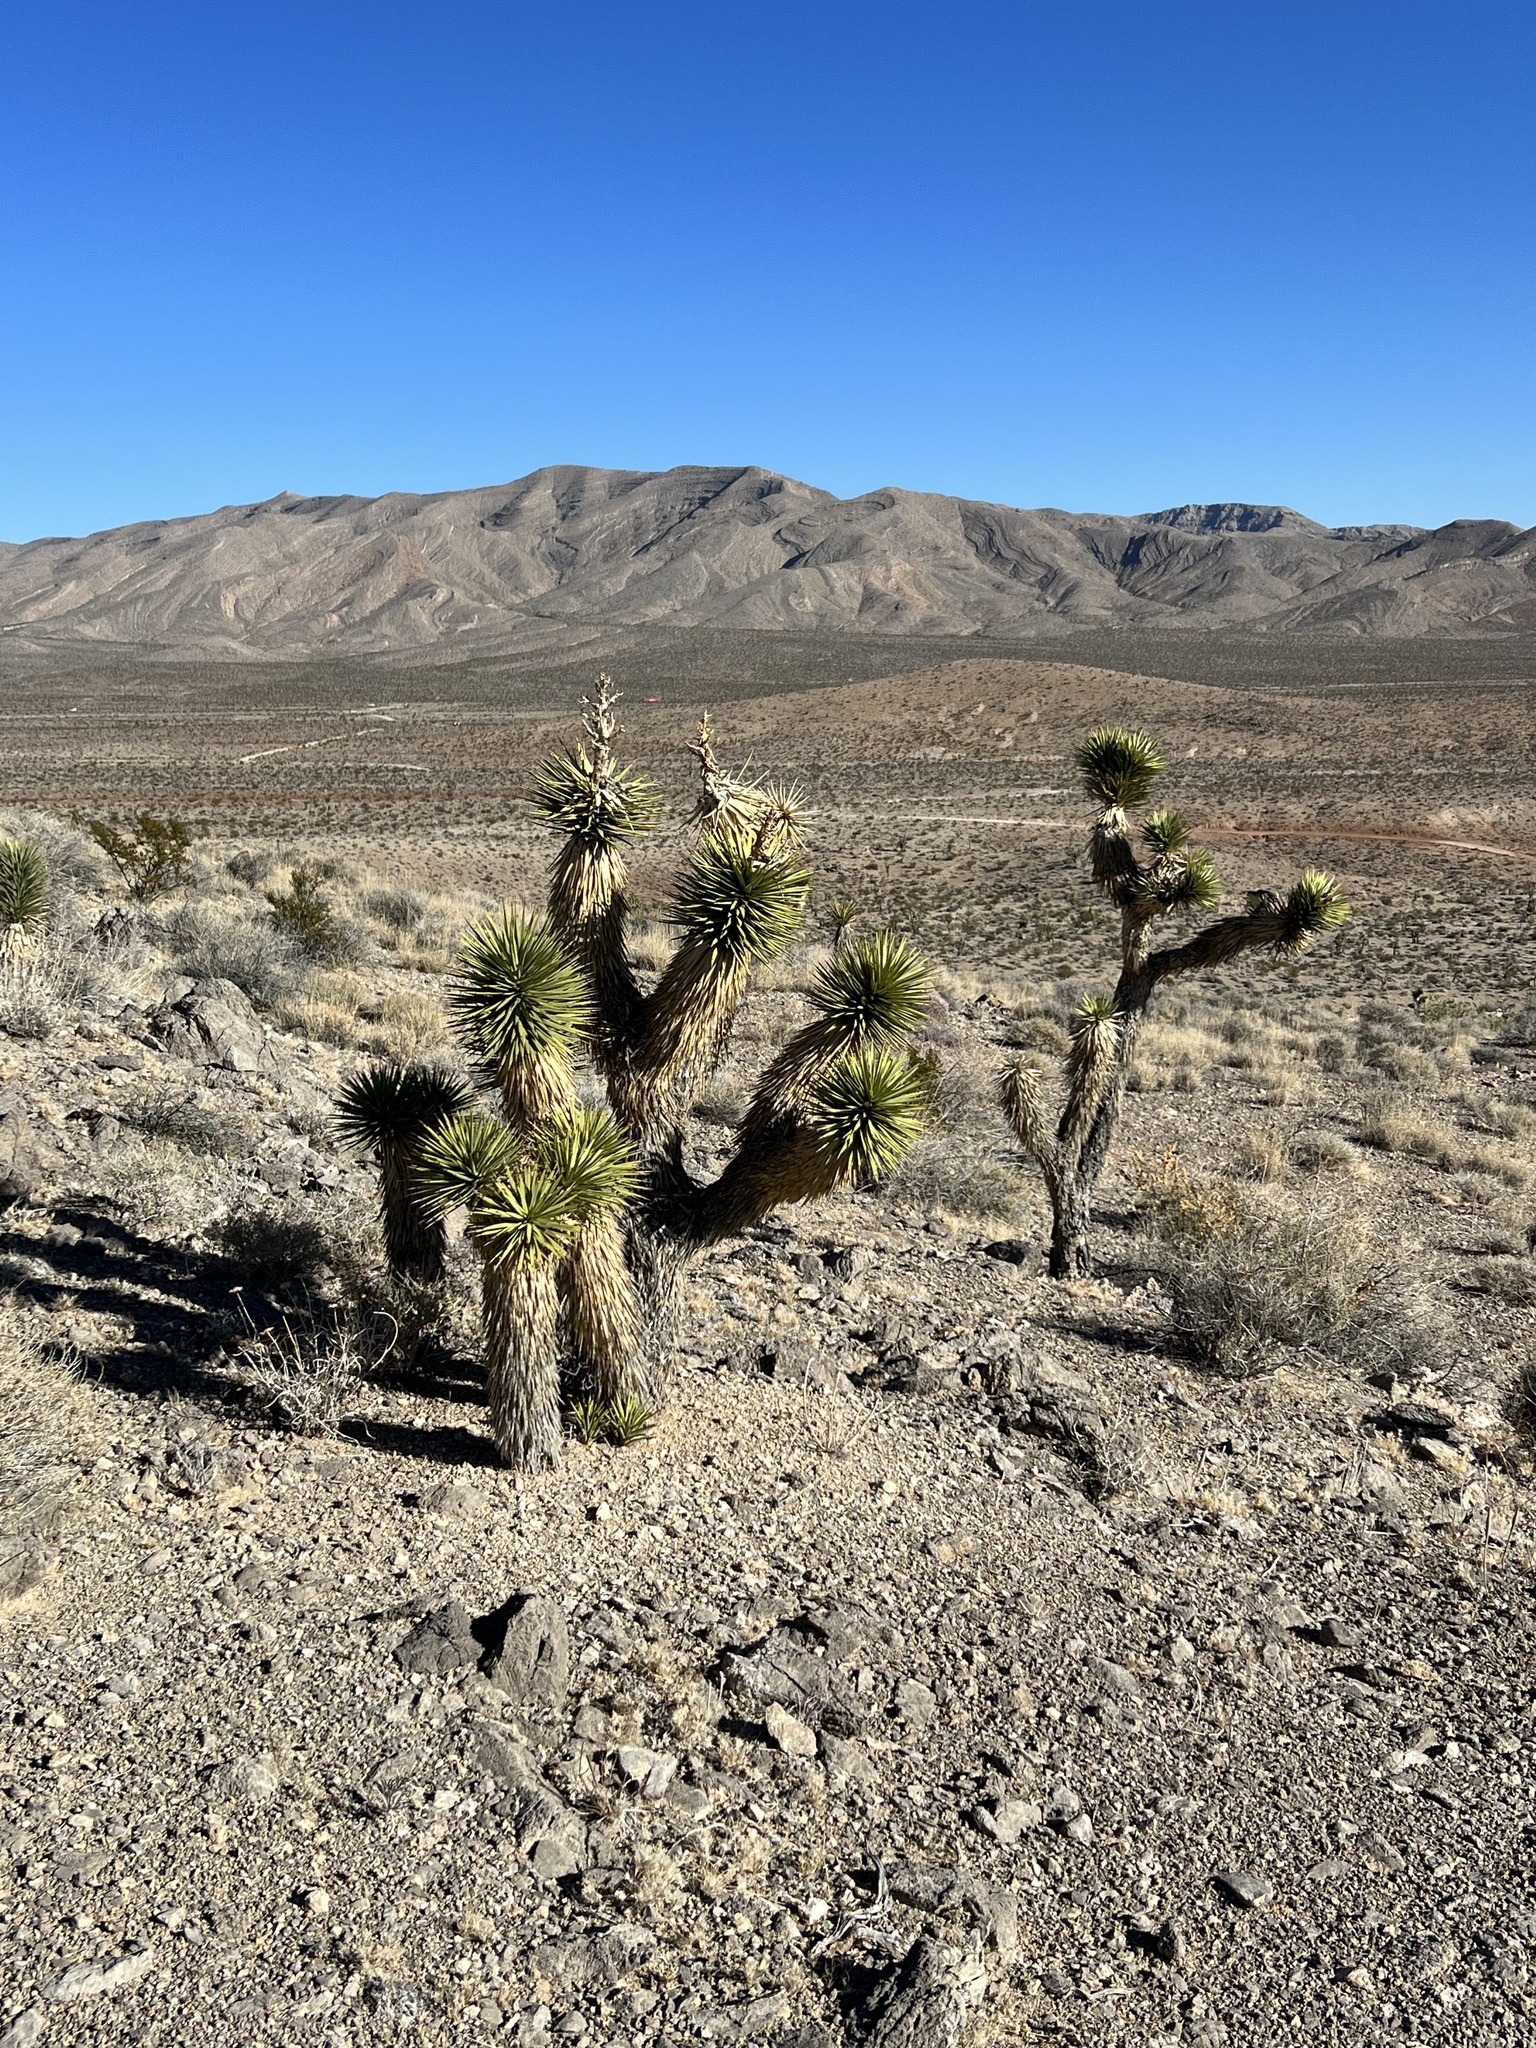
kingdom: Plantae
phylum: Tracheophyta
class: Liliopsida
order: Asparagales
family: Asparagaceae
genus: Yucca
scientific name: Yucca brevifolia
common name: Joshua tree
